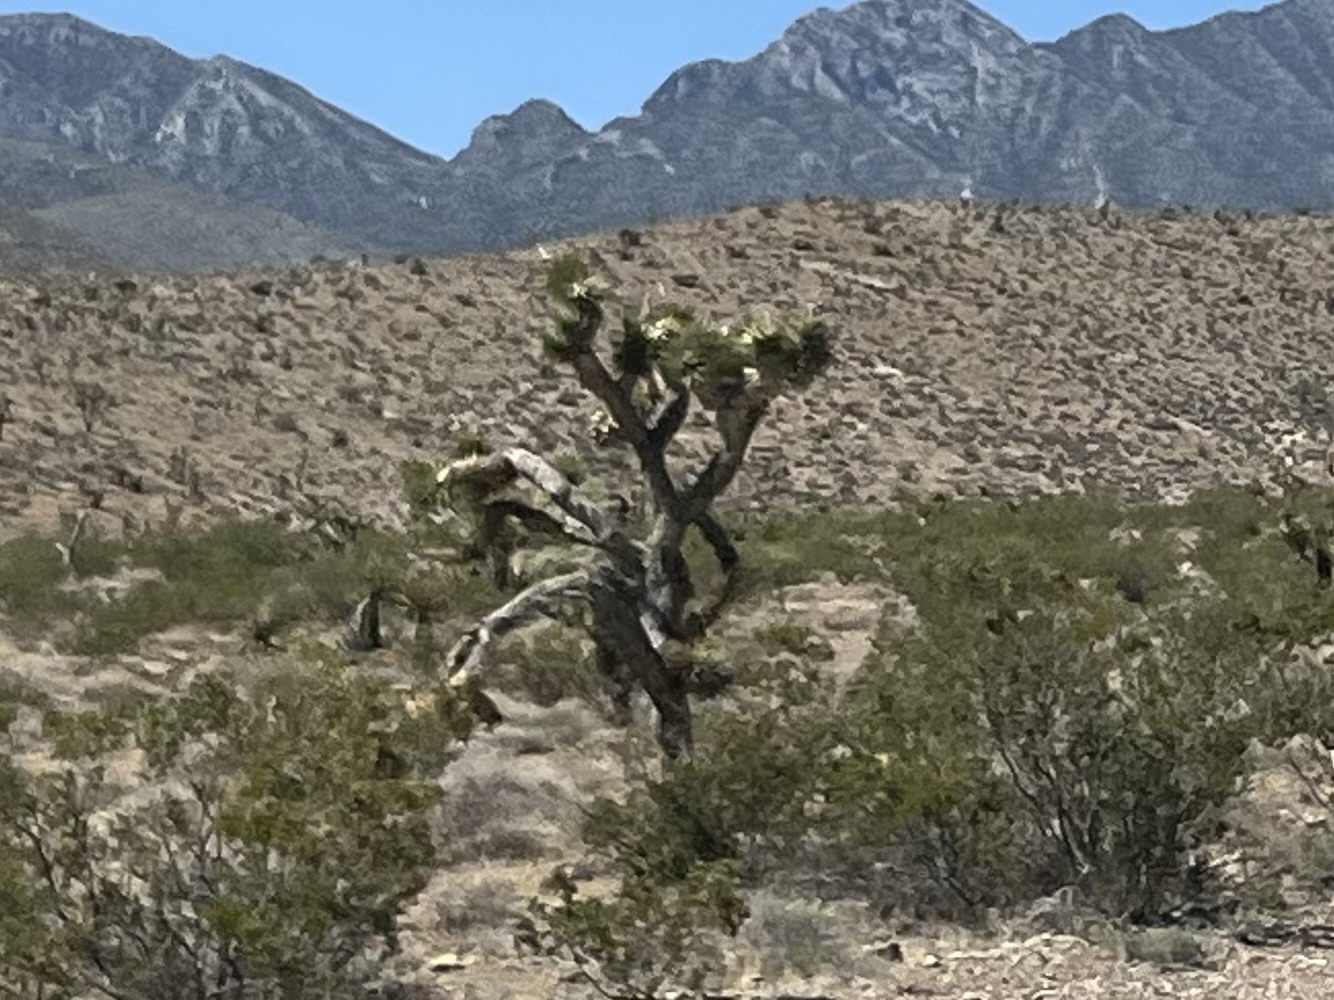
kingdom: Plantae
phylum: Tracheophyta
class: Liliopsida
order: Asparagales
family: Asparagaceae
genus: Yucca
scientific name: Yucca brevifolia
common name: Joshua tree
